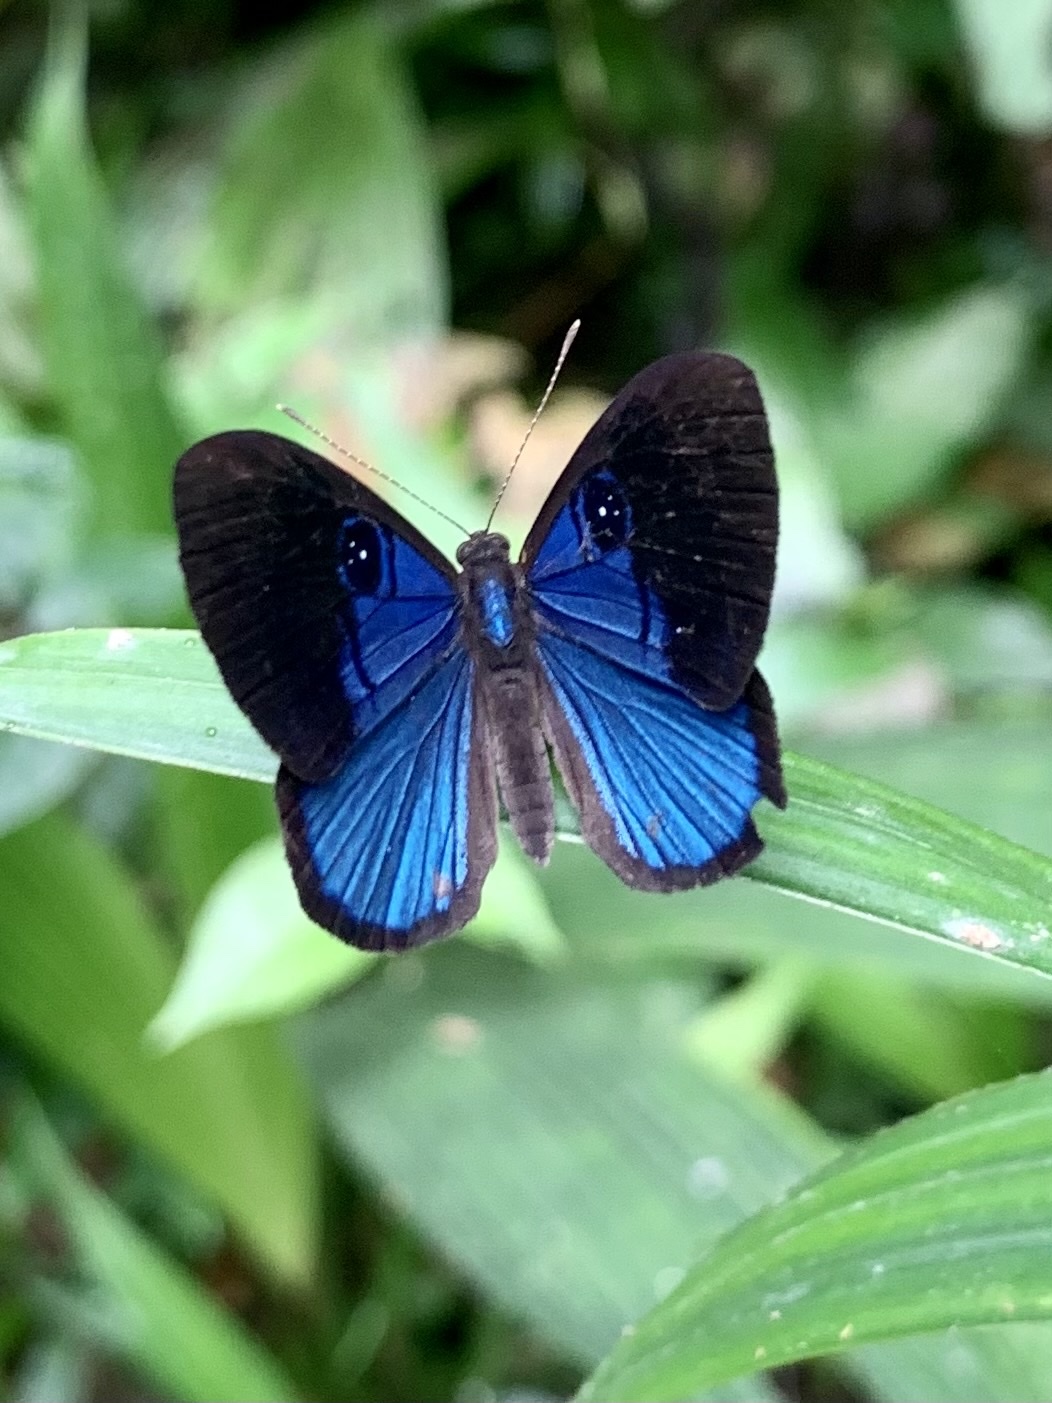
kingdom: Animalia
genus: Mesosemia
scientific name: Mesosemia asa
